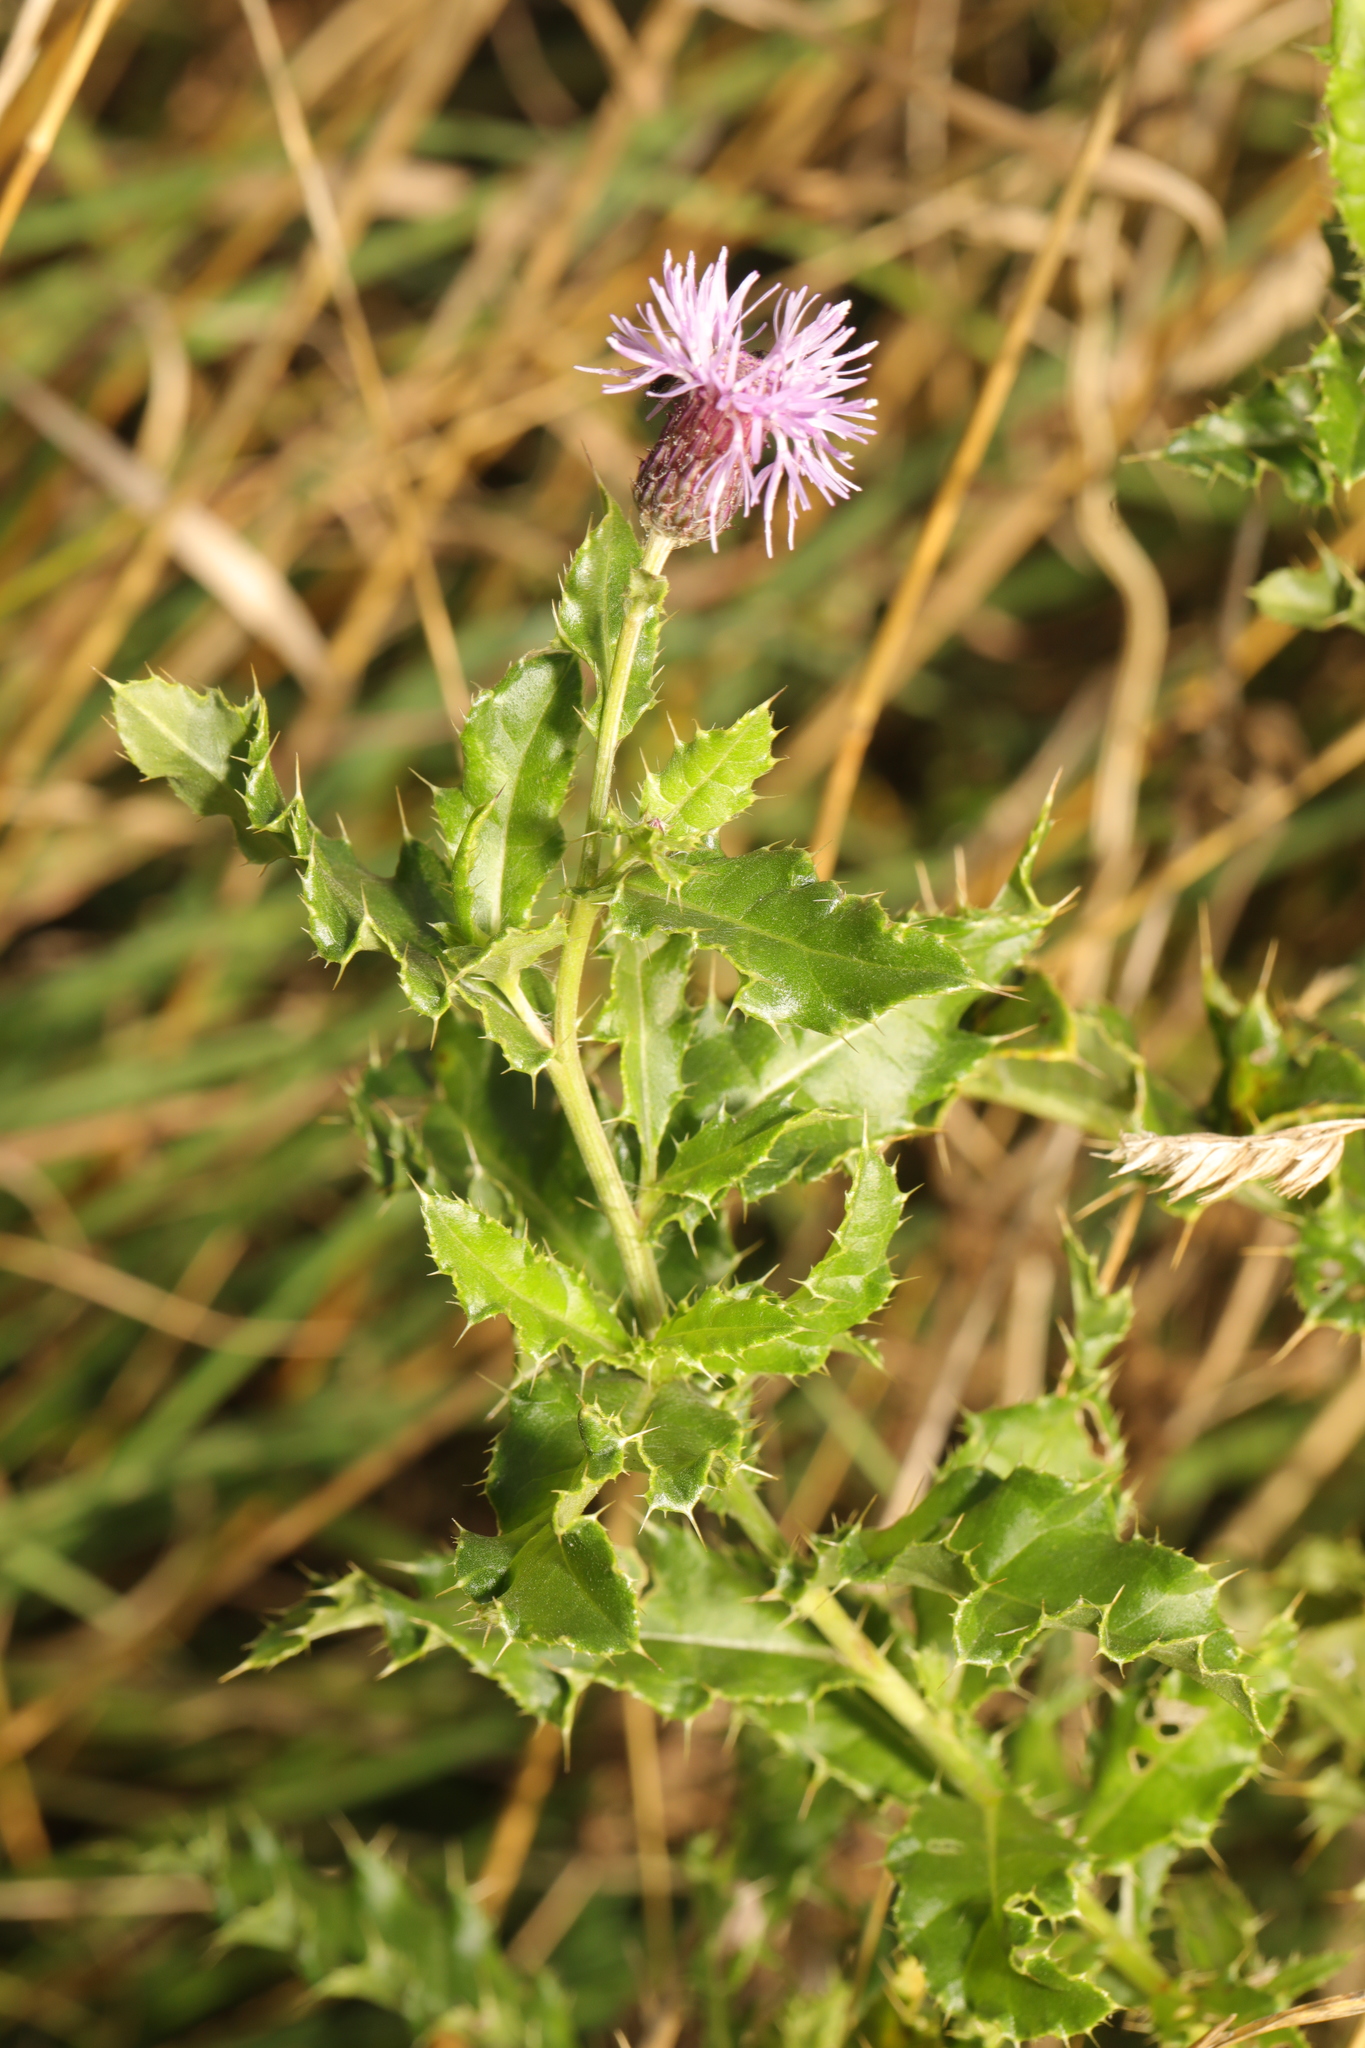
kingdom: Plantae
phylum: Tracheophyta
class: Magnoliopsida
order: Asterales
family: Asteraceae
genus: Cirsium
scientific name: Cirsium arvense
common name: Creeping thistle
